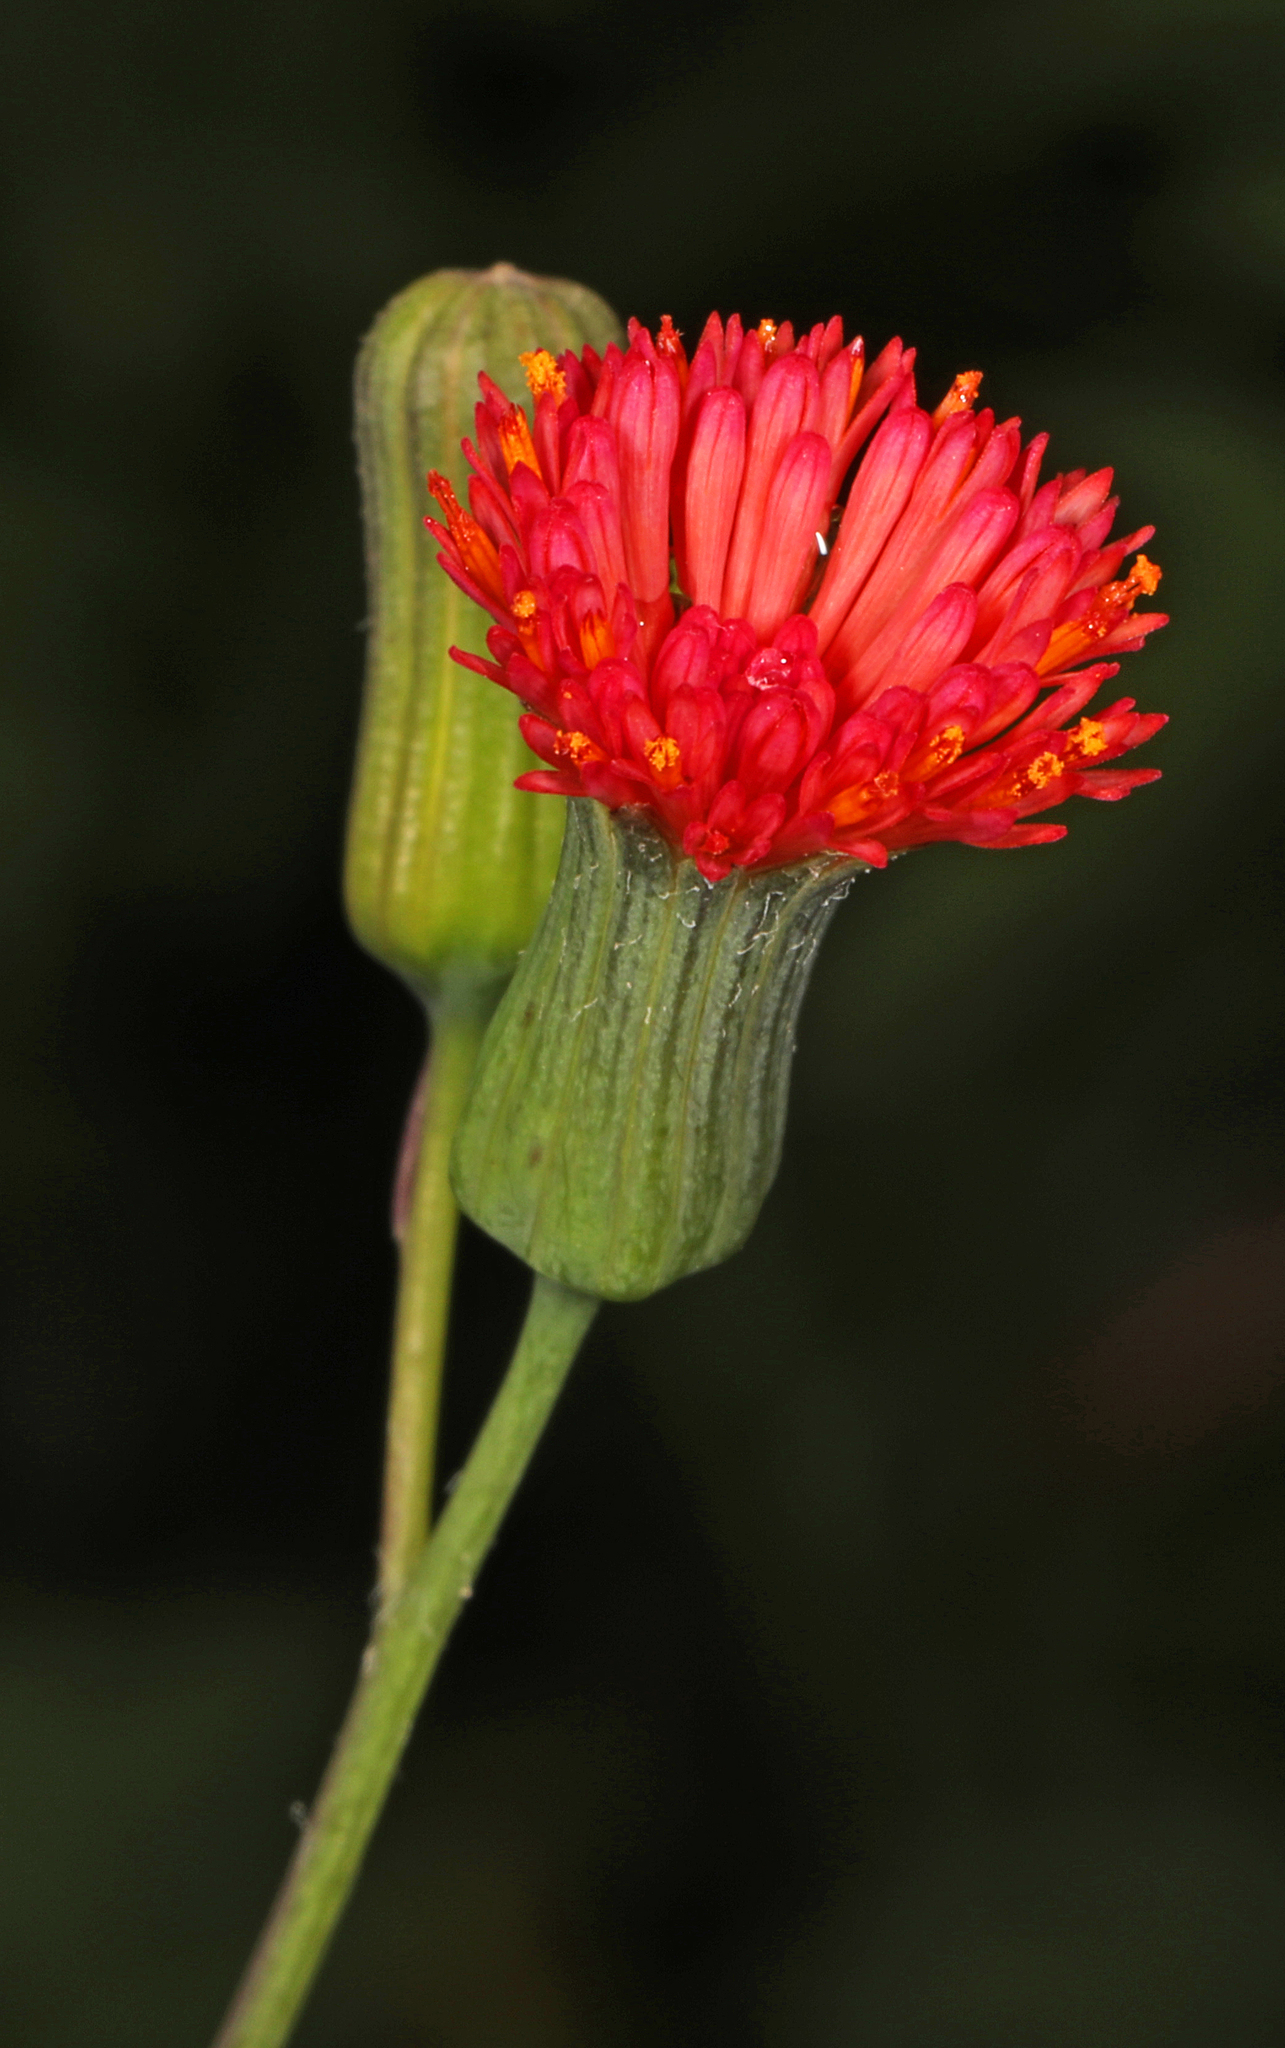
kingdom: Plantae
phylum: Tracheophyta
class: Magnoliopsida
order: Asterales
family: Asteraceae
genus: Emilia
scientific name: Emilia fosbergii
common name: Florida tasselflower
